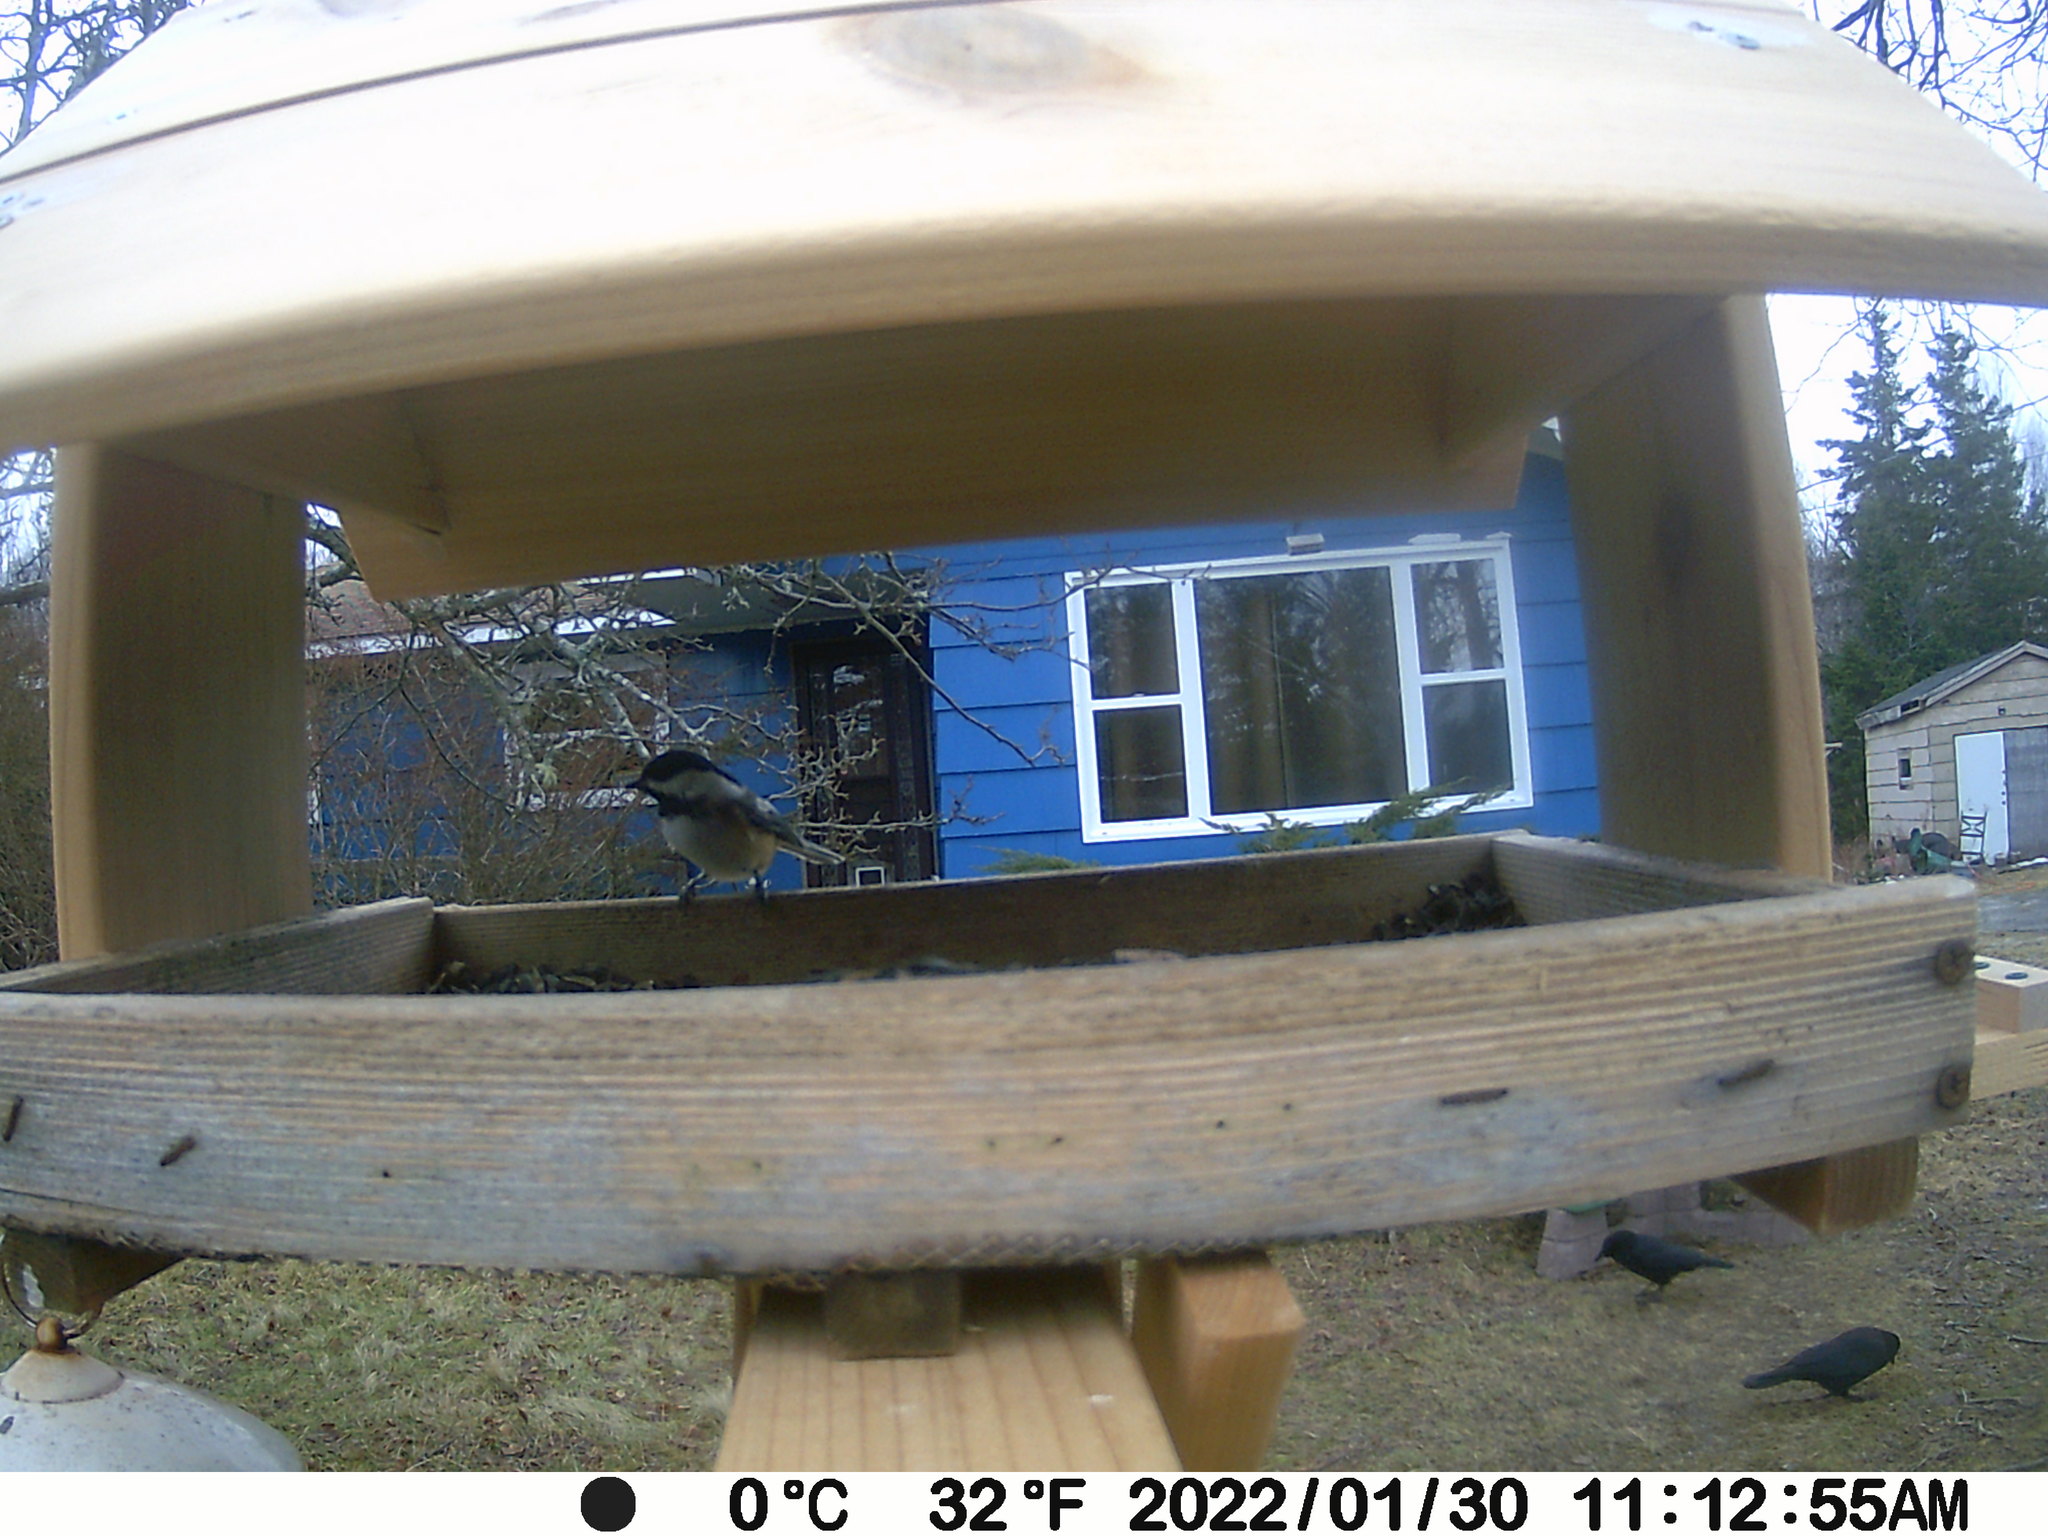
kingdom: Animalia
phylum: Chordata
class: Aves
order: Passeriformes
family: Paridae
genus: Poecile
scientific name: Poecile atricapillus
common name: Black-capped chickadee
